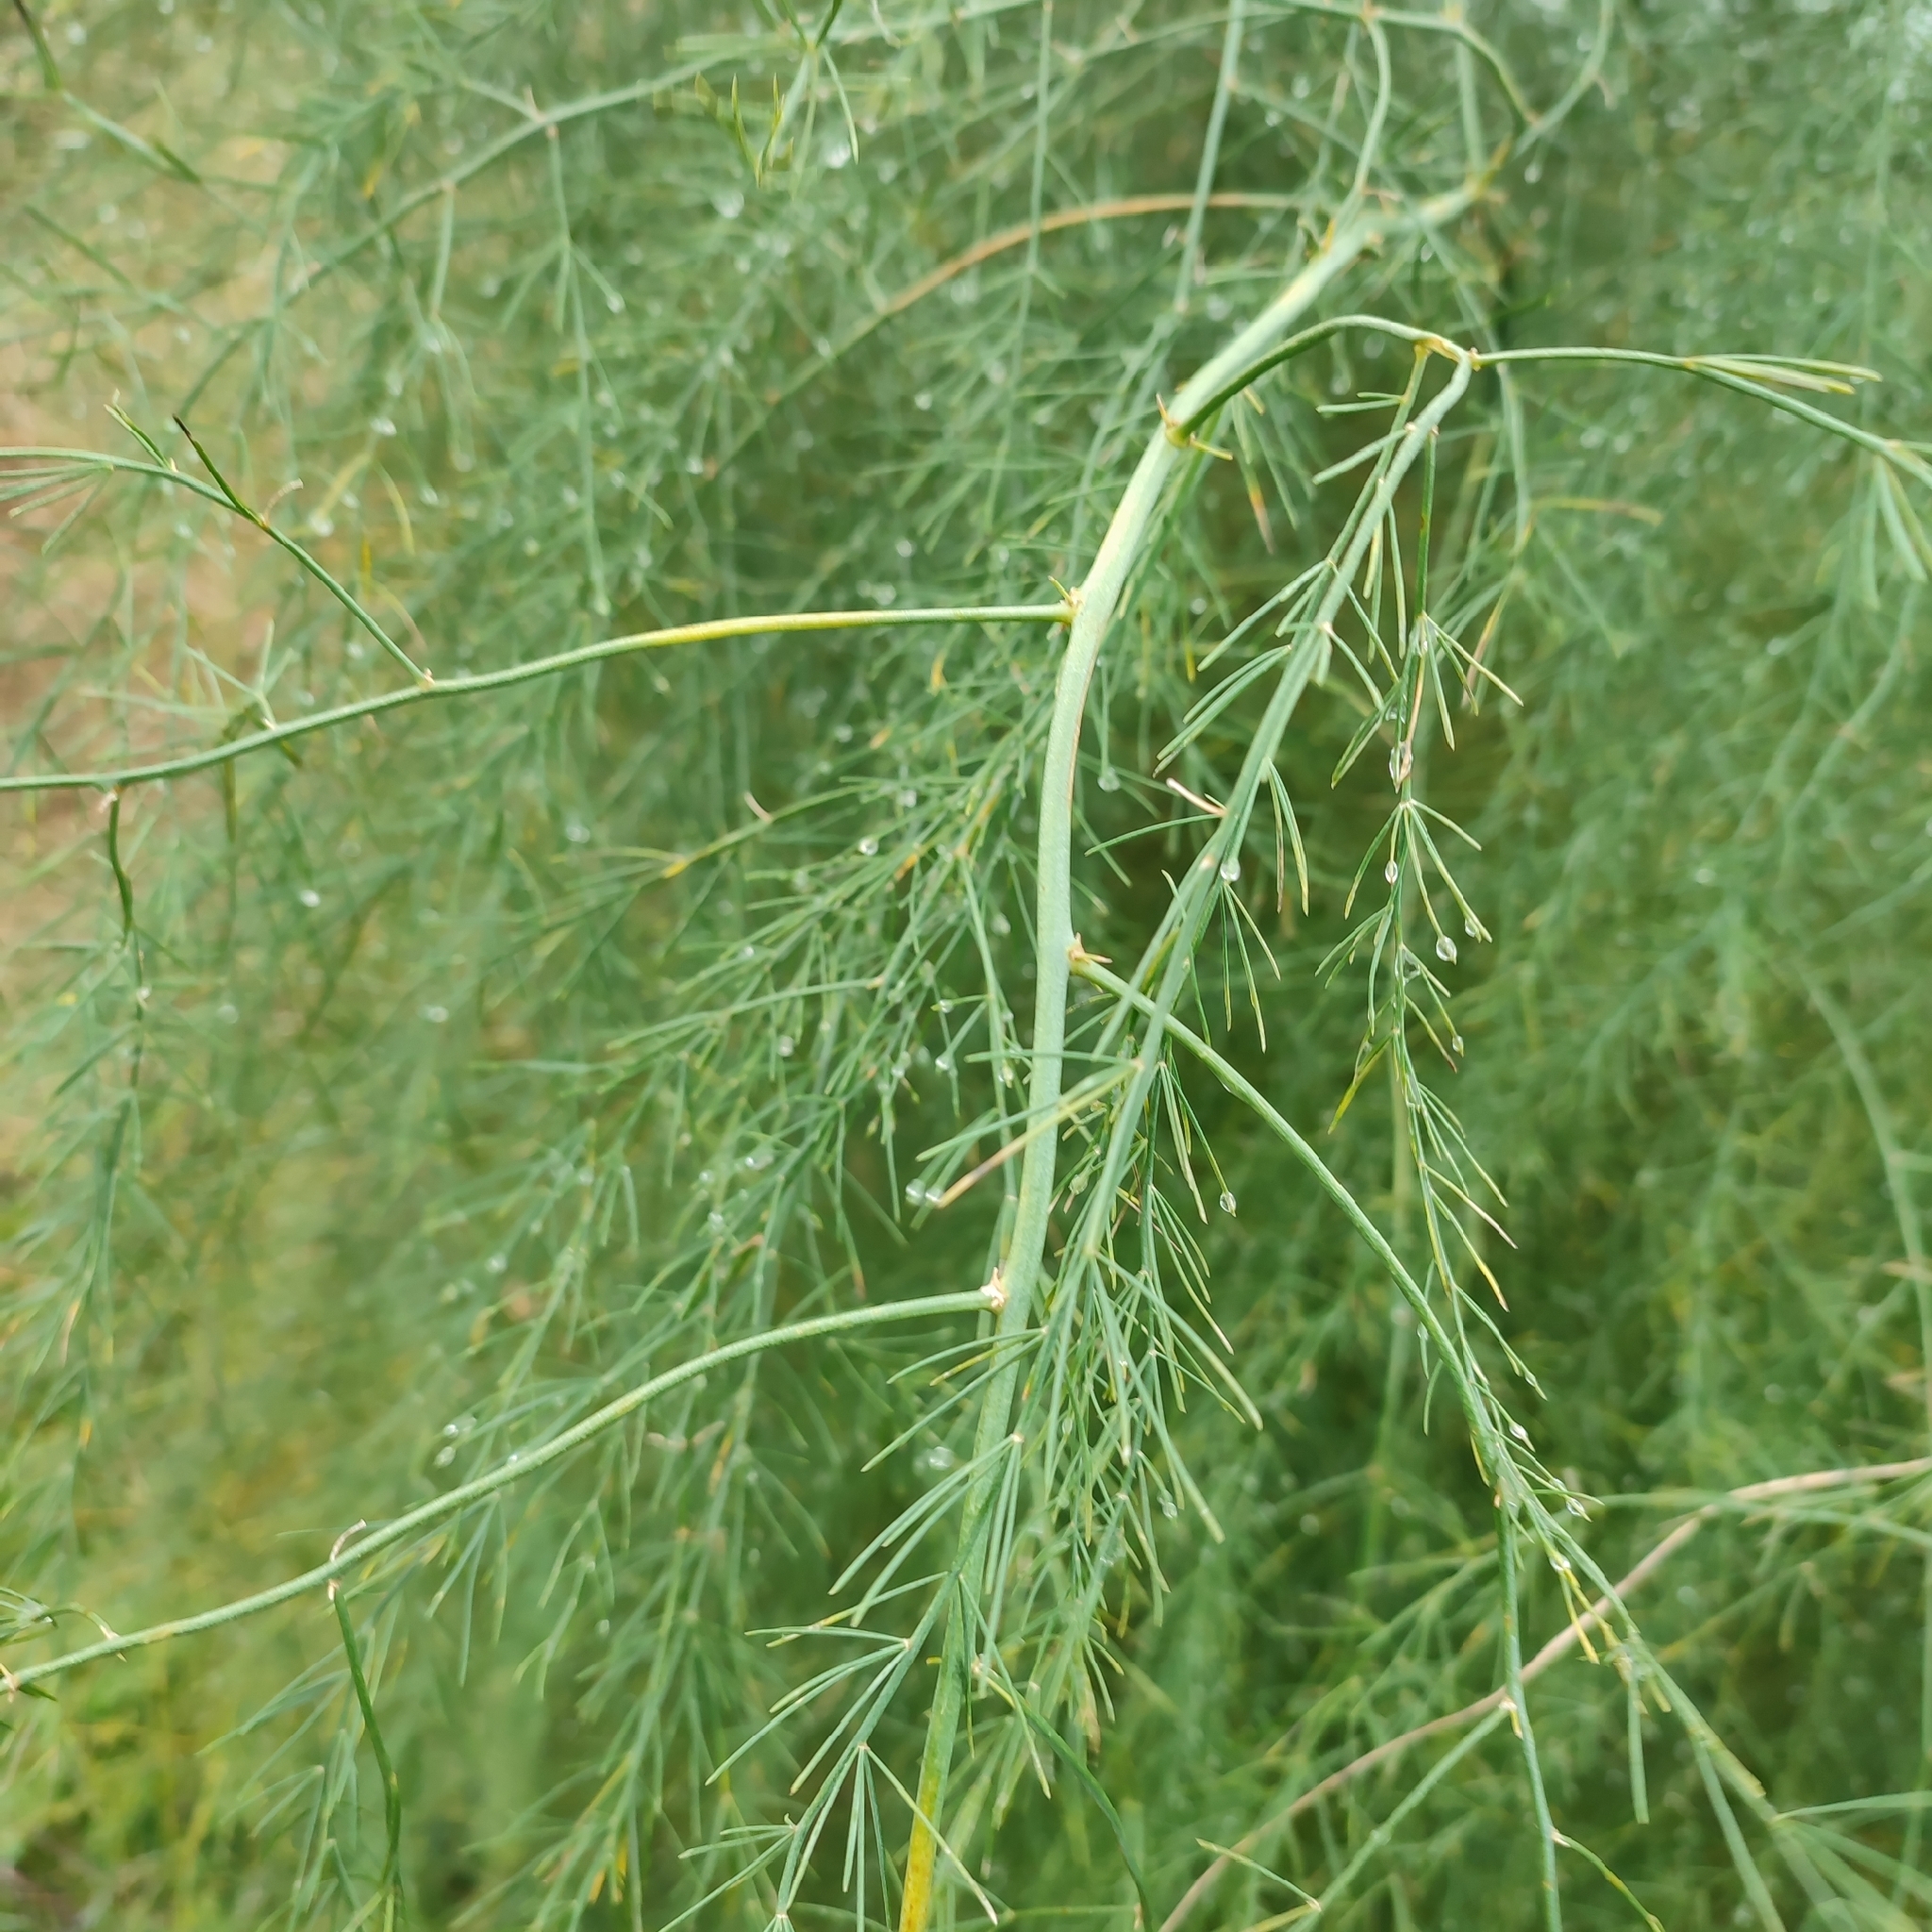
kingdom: Plantae
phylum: Tracheophyta
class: Liliopsida
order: Asparagales
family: Asparagaceae
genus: Asparagus
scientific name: Asparagus officinalis
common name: Garden asparagus
